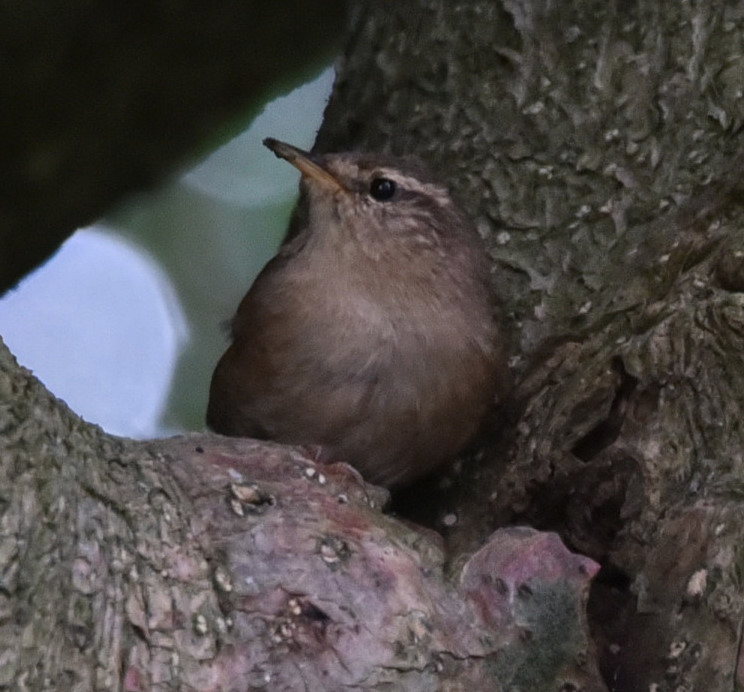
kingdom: Animalia
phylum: Chordata
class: Aves
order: Passeriformes
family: Troglodytidae
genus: Troglodytes
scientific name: Troglodytes troglodytes
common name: Eurasian wren
